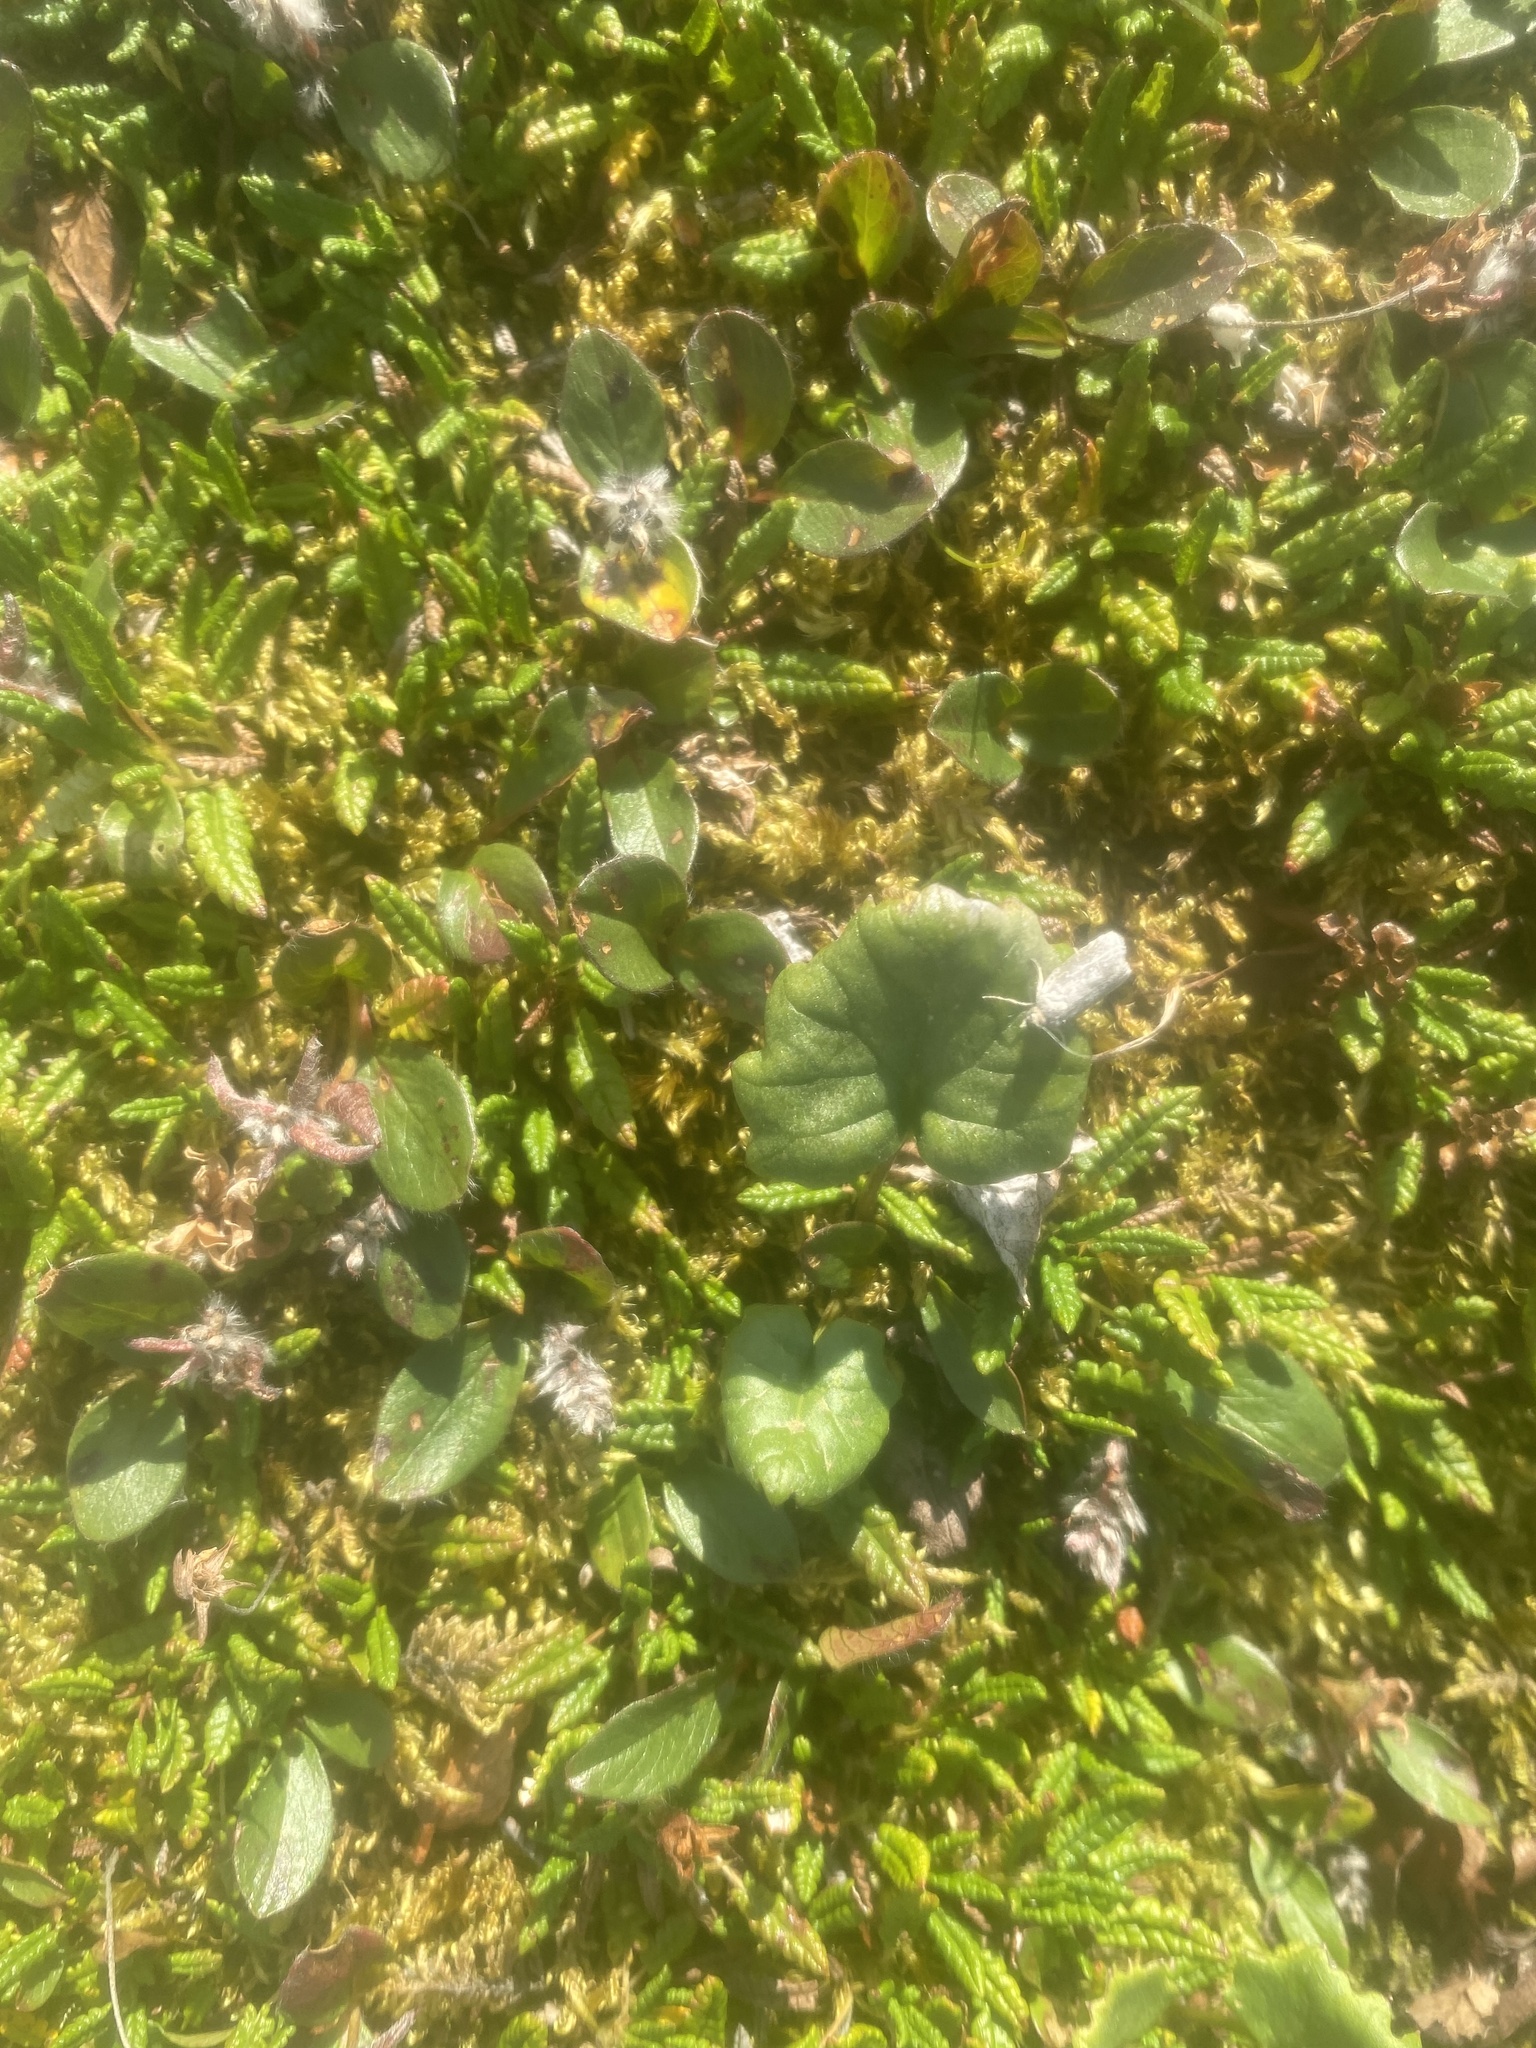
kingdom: Plantae
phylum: Tracheophyta
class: Magnoliopsida
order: Asterales
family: Asteraceae
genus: Endocellion
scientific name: Endocellion glaciale
